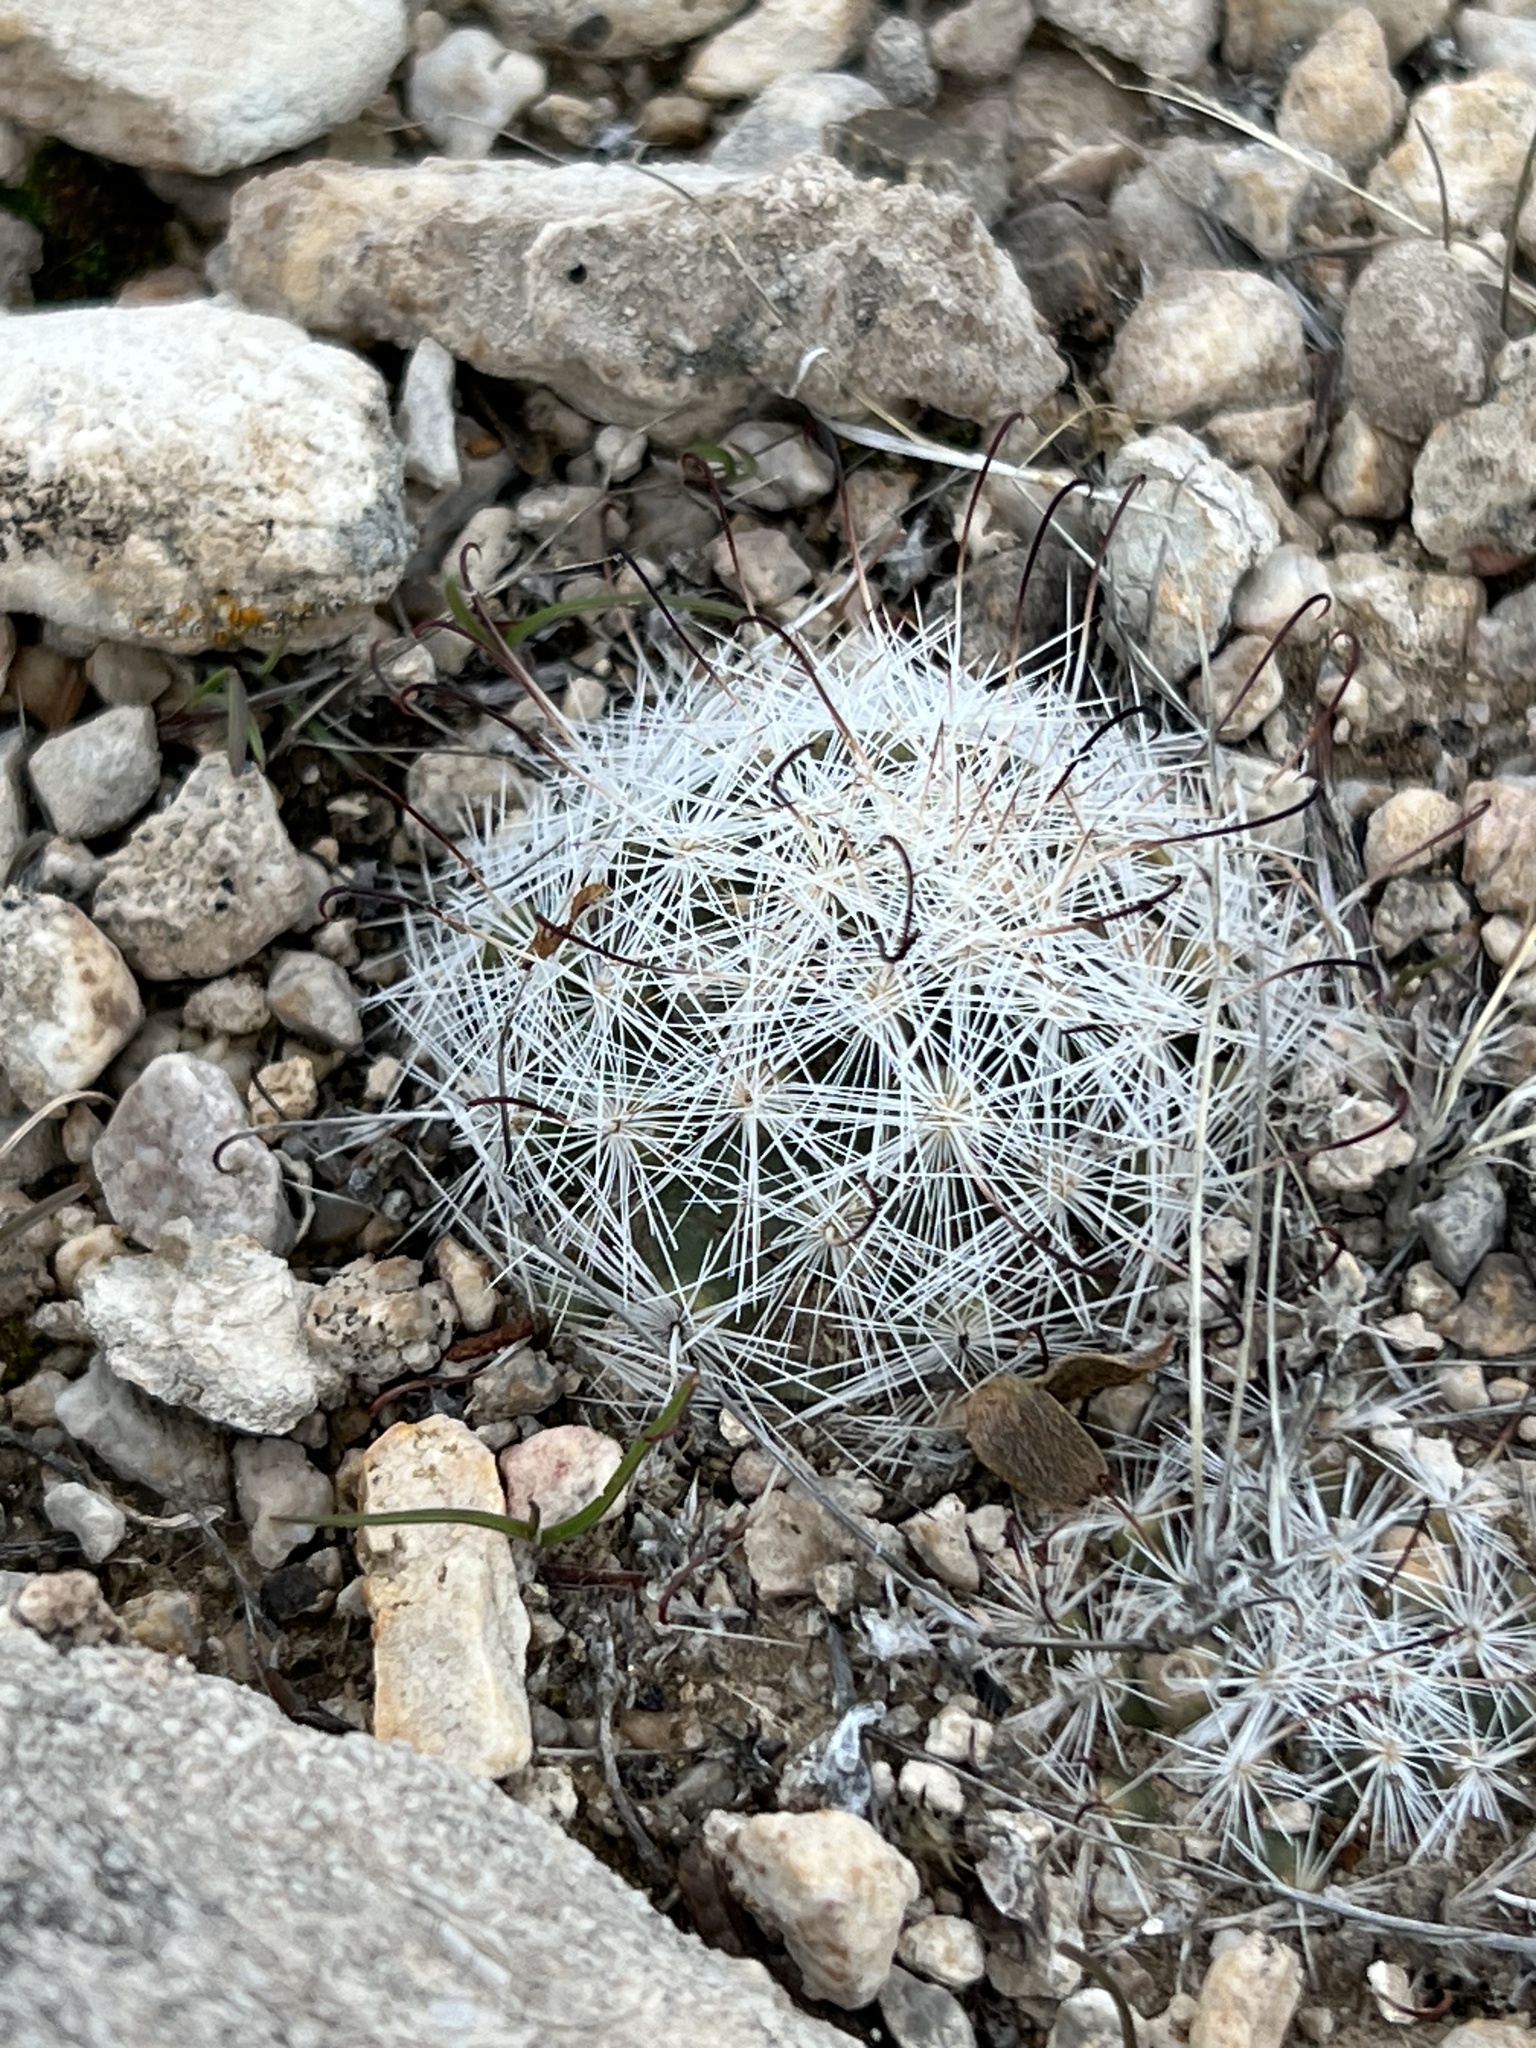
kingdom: Plantae
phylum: Tracheophyta
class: Magnoliopsida
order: Caryophyllales
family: Cactaceae
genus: Cochemiea
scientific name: Cochemiea tetrancistra
